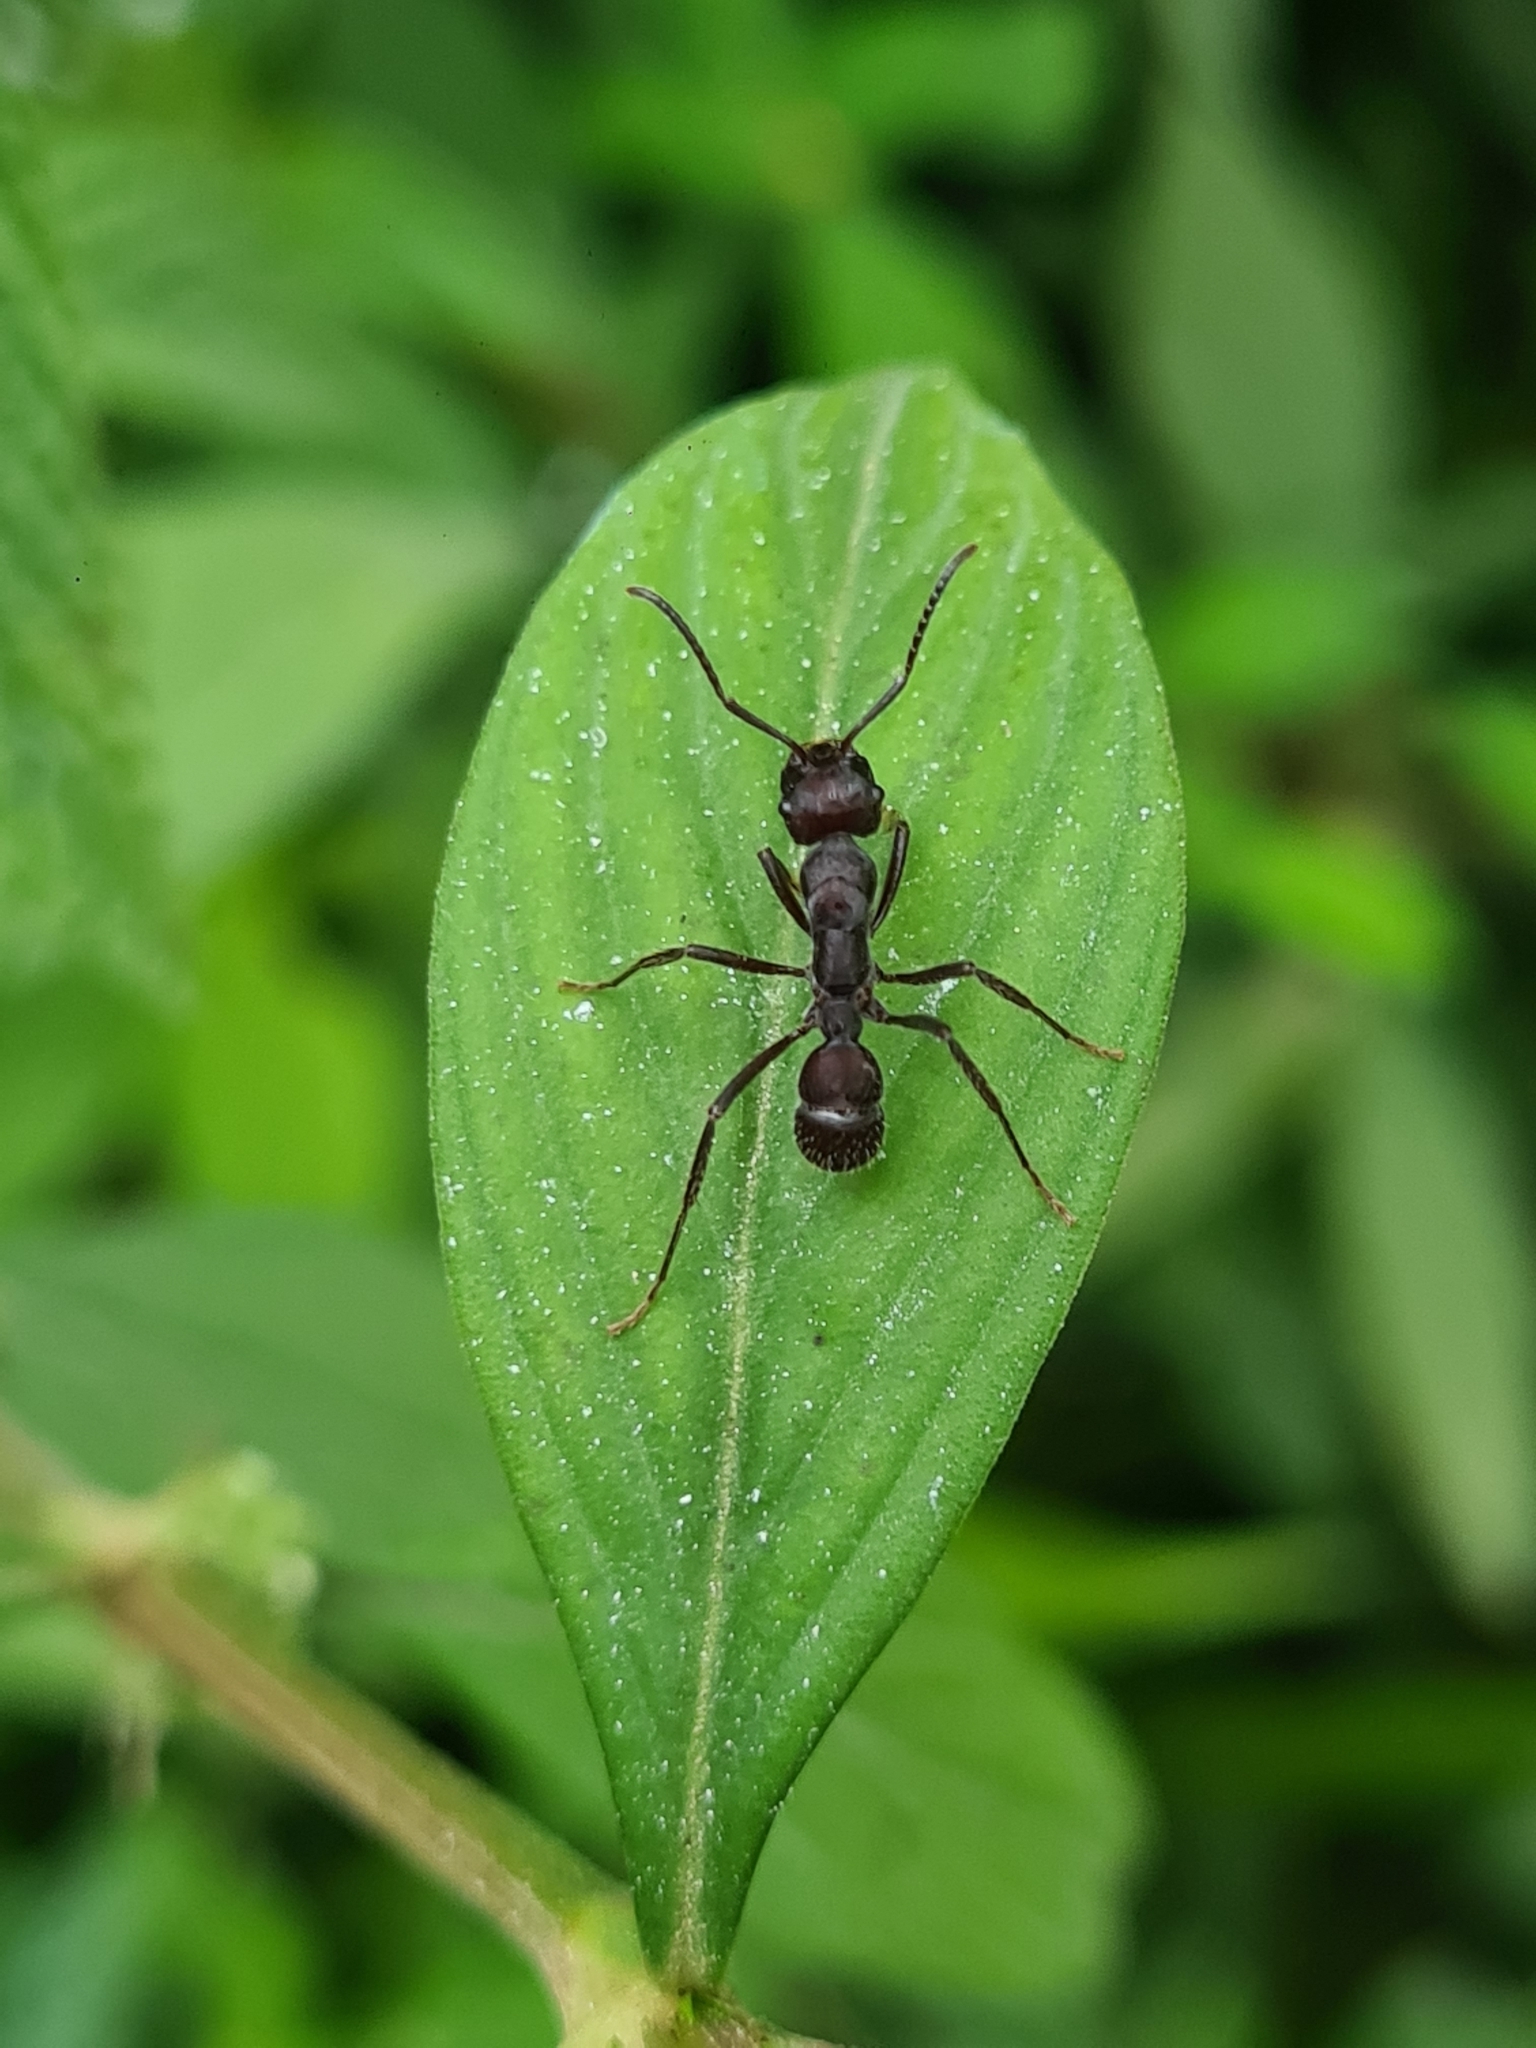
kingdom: Animalia
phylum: Arthropoda
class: Insecta
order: Hymenoptera
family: Formicidae
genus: Ectatomma
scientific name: Ectatomma brunneum
